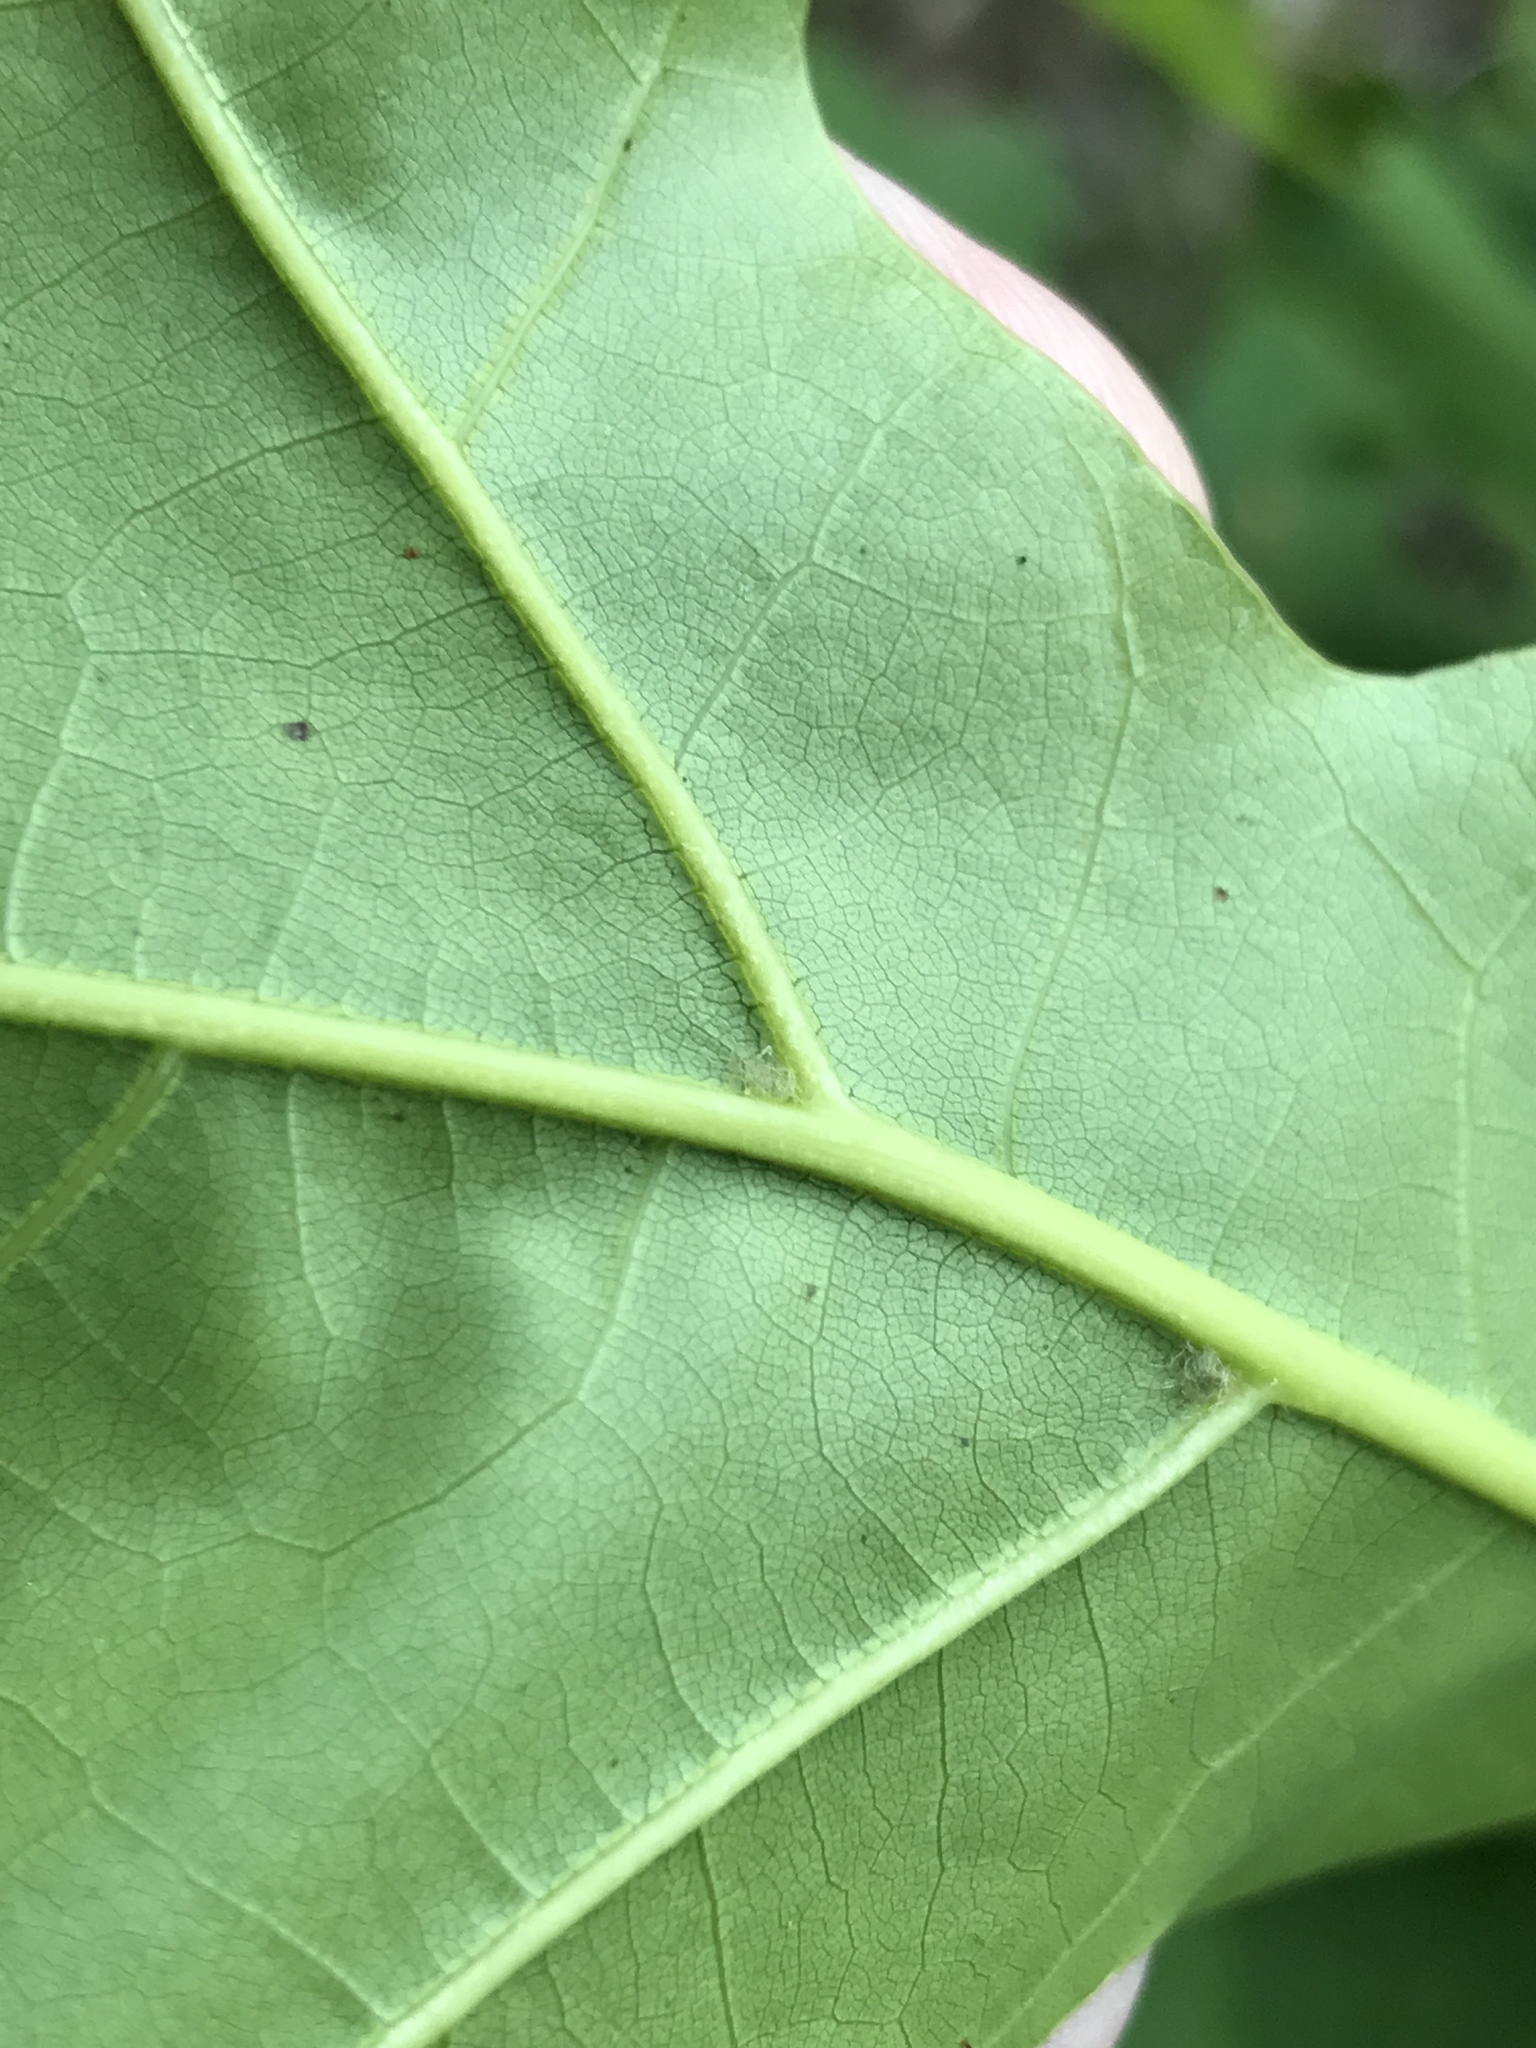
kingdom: Plantae
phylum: Tracheophyta
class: Magnoliopsida
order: Fagales
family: Fagaceae
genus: Quercus
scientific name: Quercus rubra
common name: Red oak
